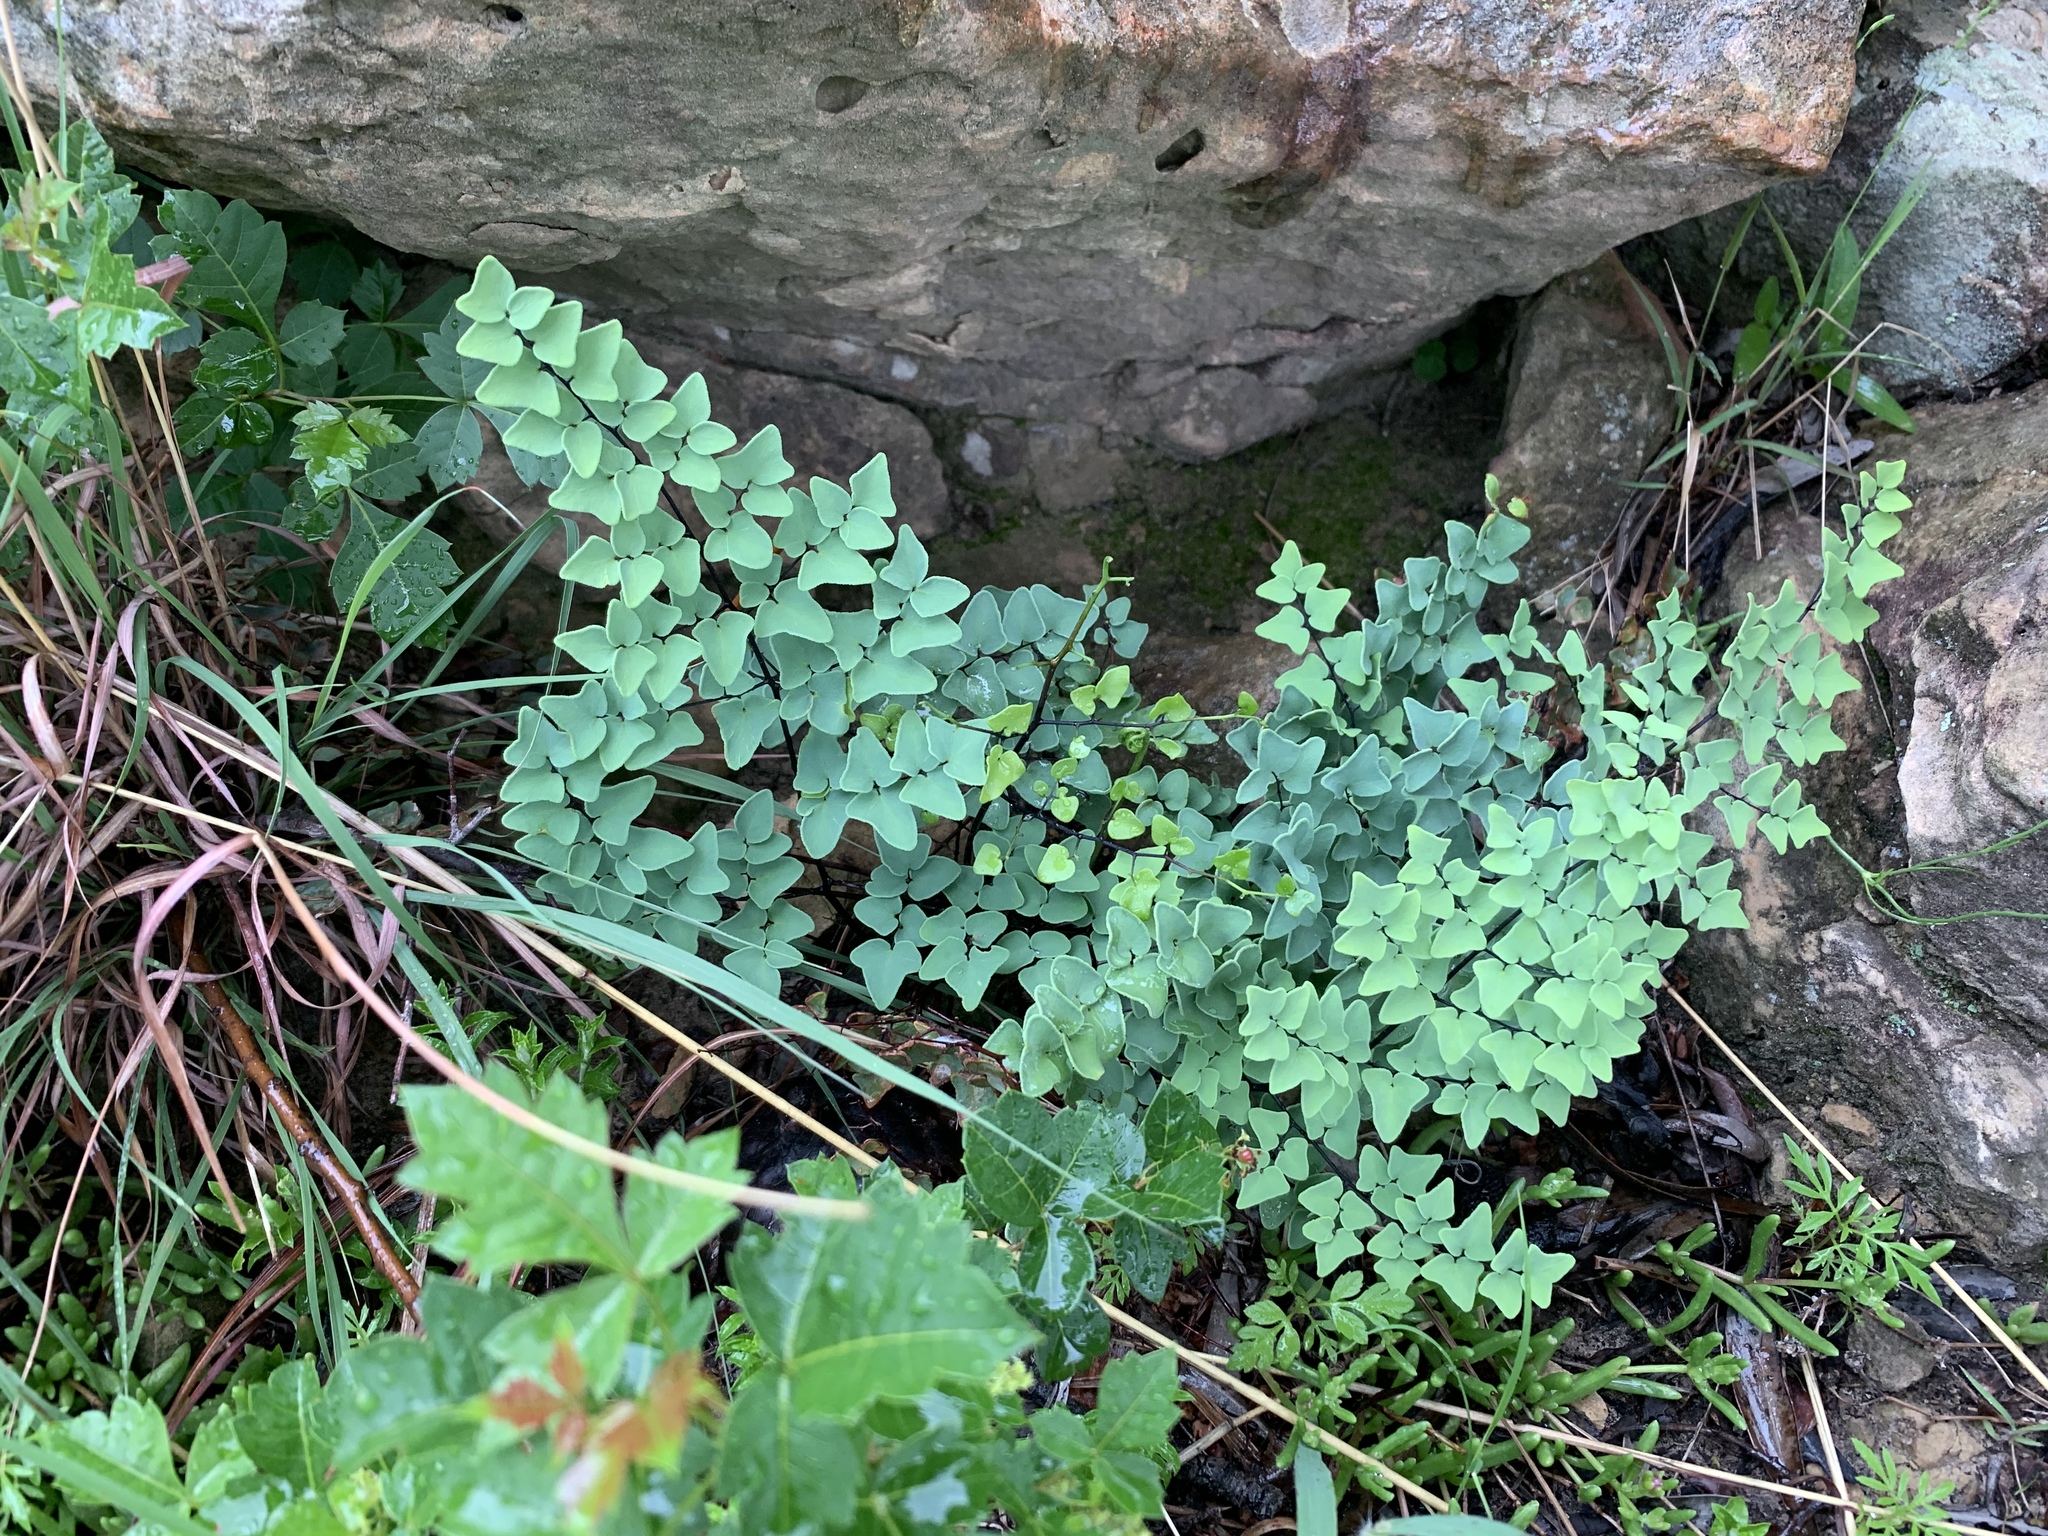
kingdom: Plantae
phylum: Tracheophyta
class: Polypodiopsida
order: Polypodiales
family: Pteridaceae
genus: Pellaea
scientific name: Pellaea calomelanos
